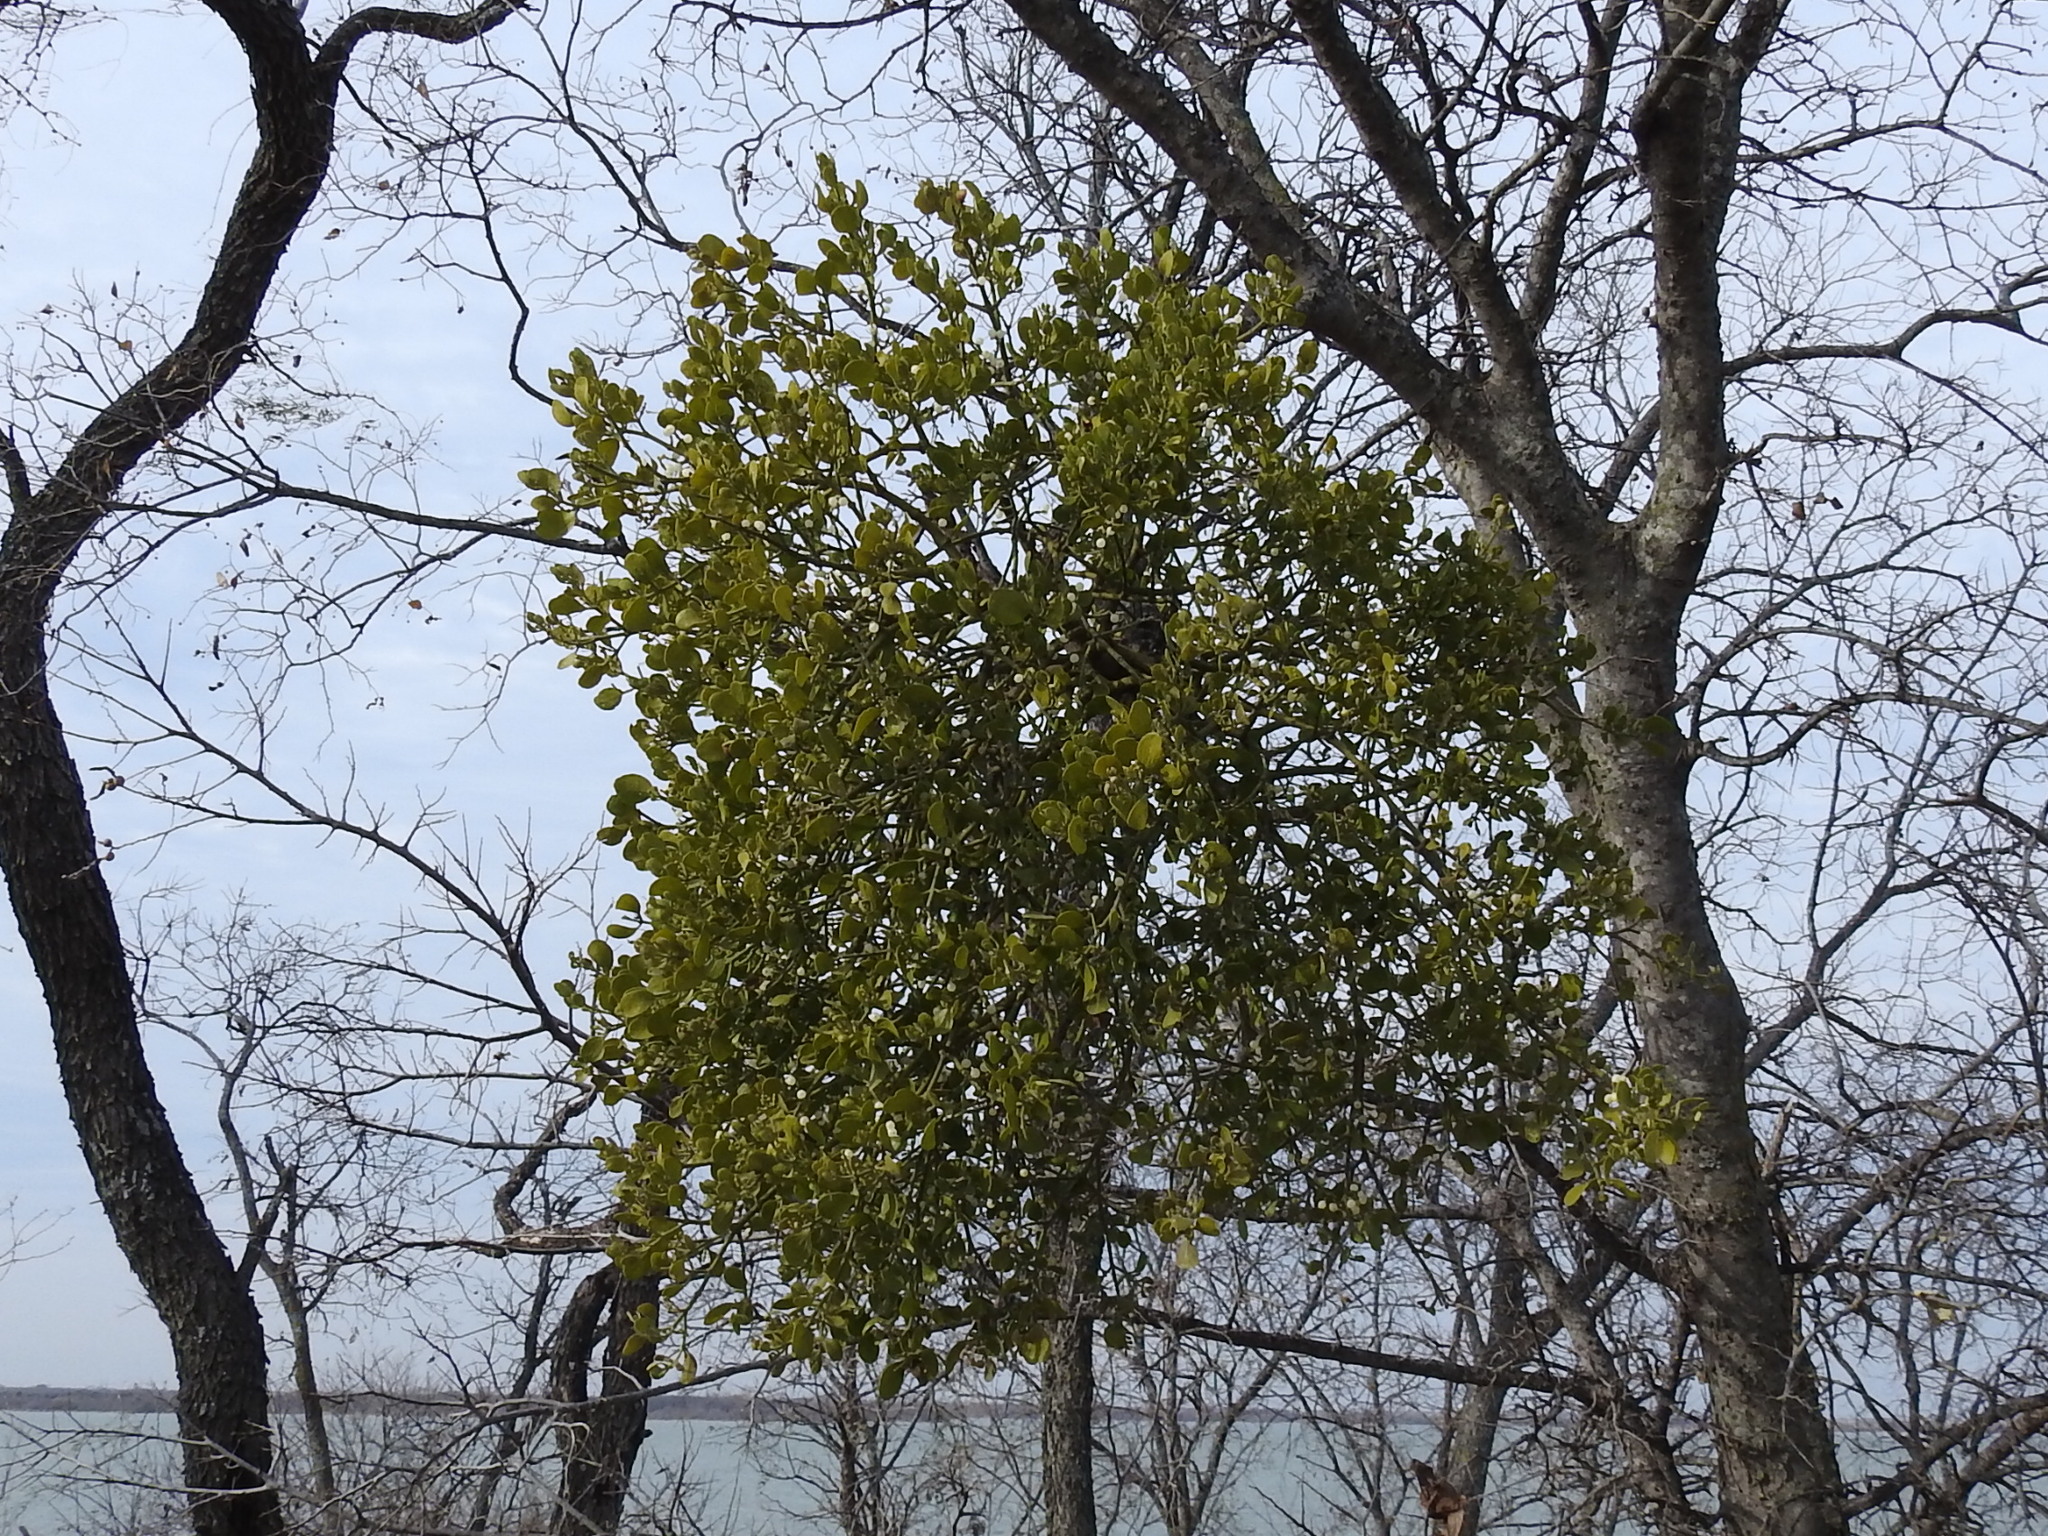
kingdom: Plantae
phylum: Tracheophyta
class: Magnoliopsida
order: Santalales
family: Viscaceae
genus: Phoradendron
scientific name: Phoradendron leucarpum
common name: Pacific mistletoe
